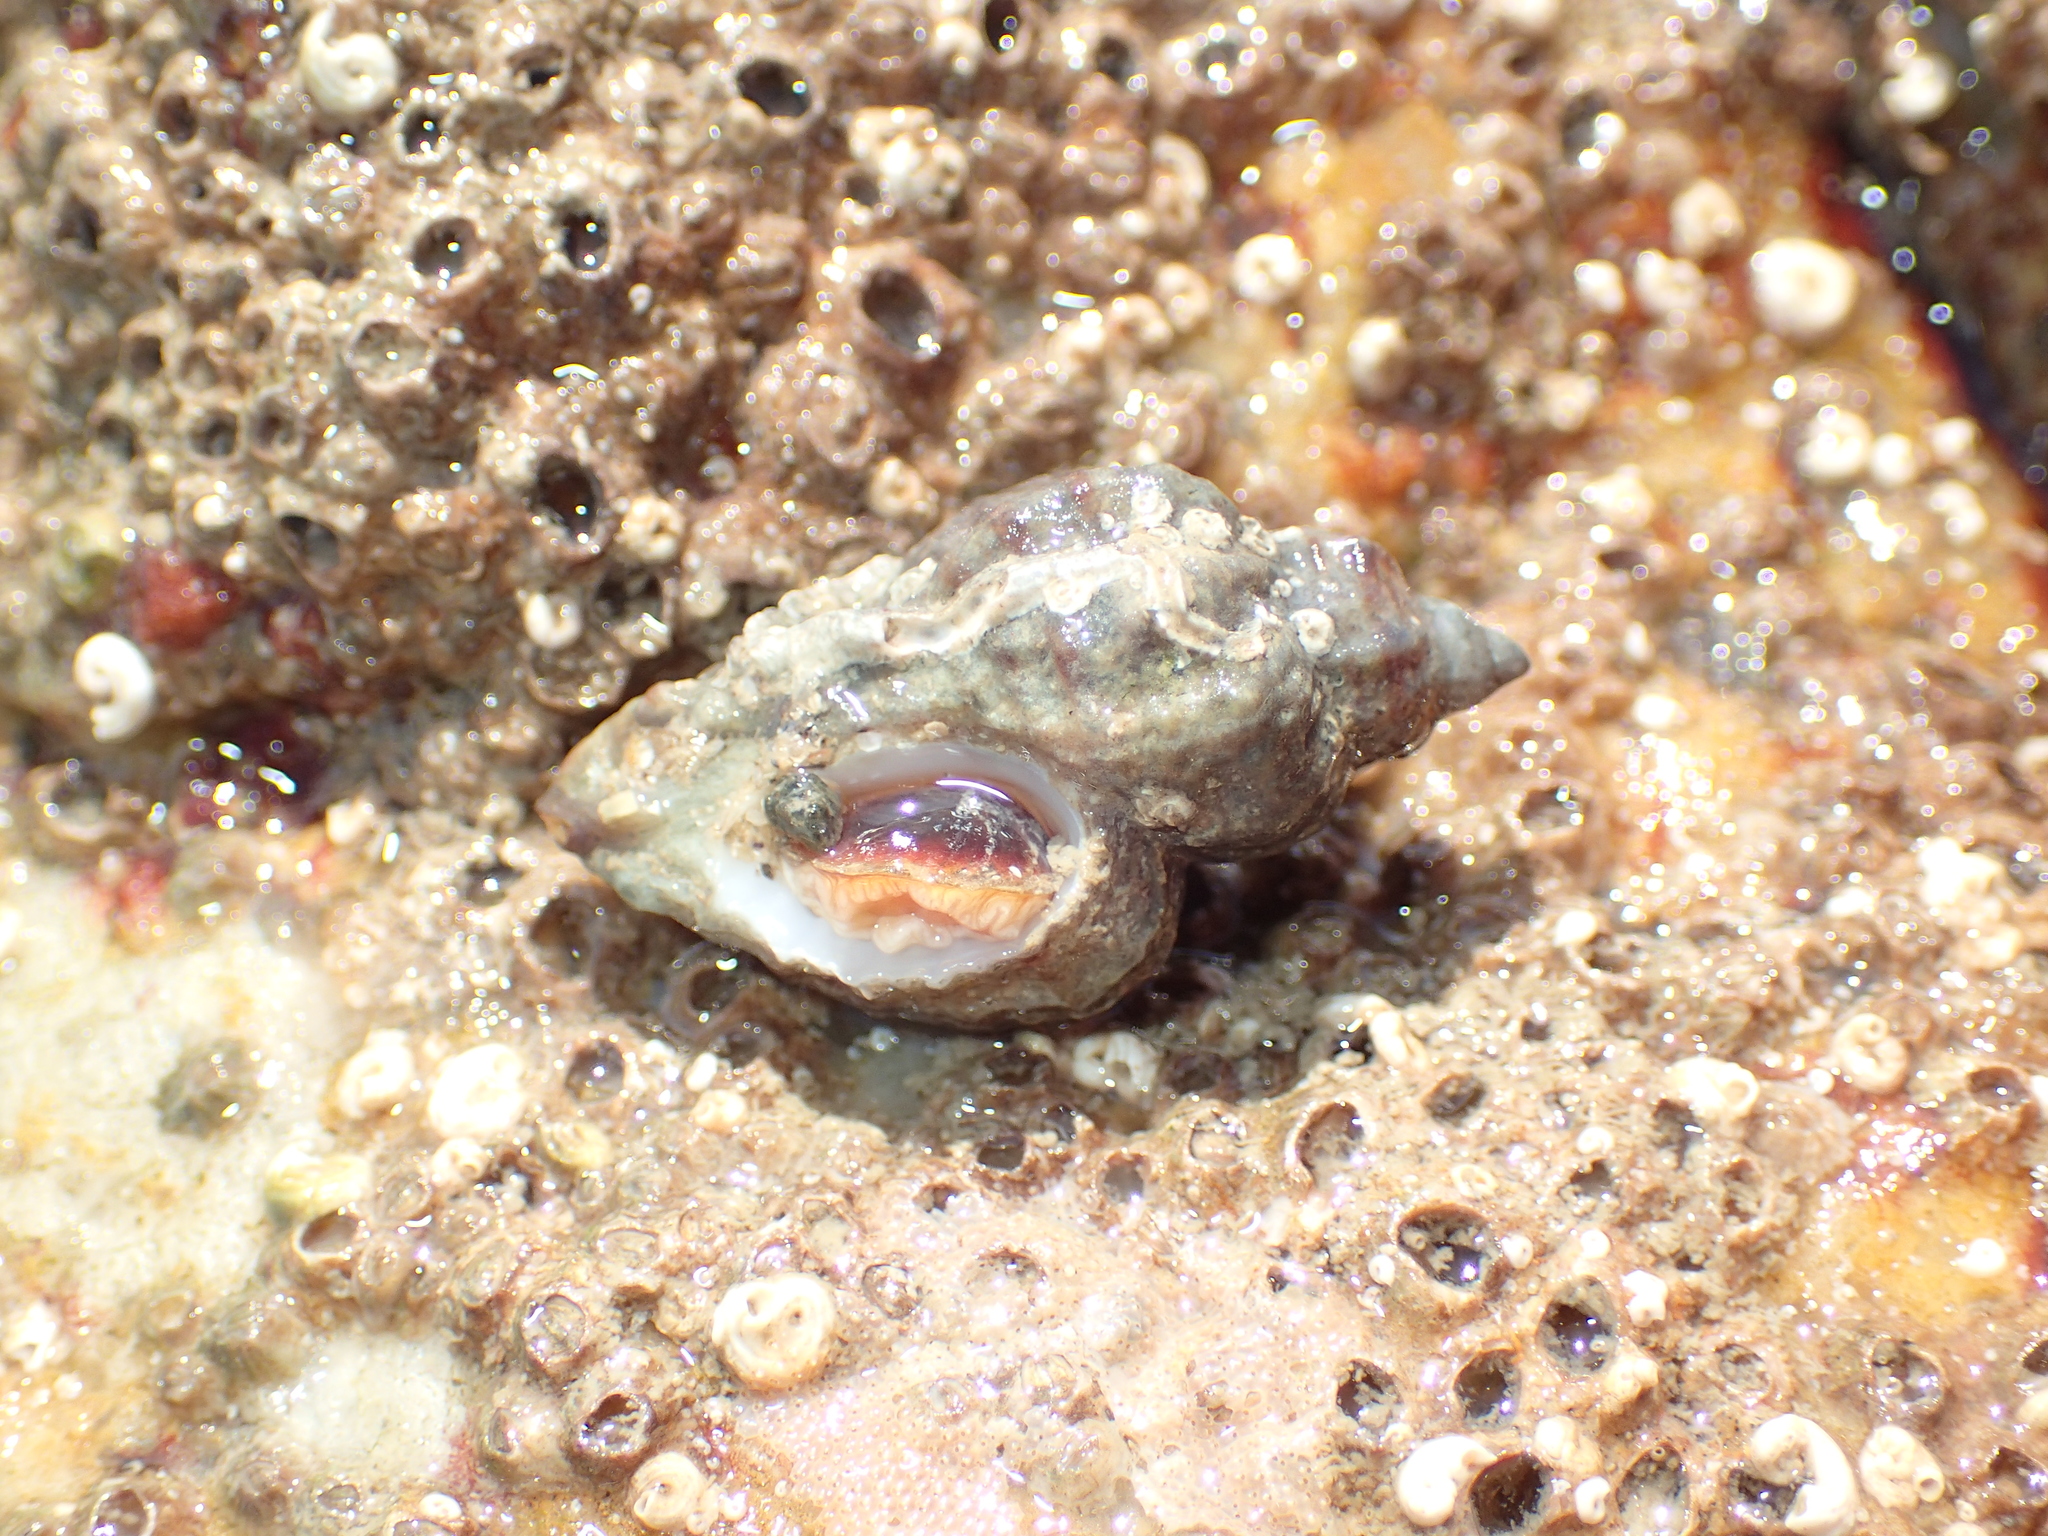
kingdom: Animalia
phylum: Mollusca
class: Gastropoda
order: Neogastropoda
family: Muricidae
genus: Ocenebra
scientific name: Ocenebra erinaceus
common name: European sting winkle
